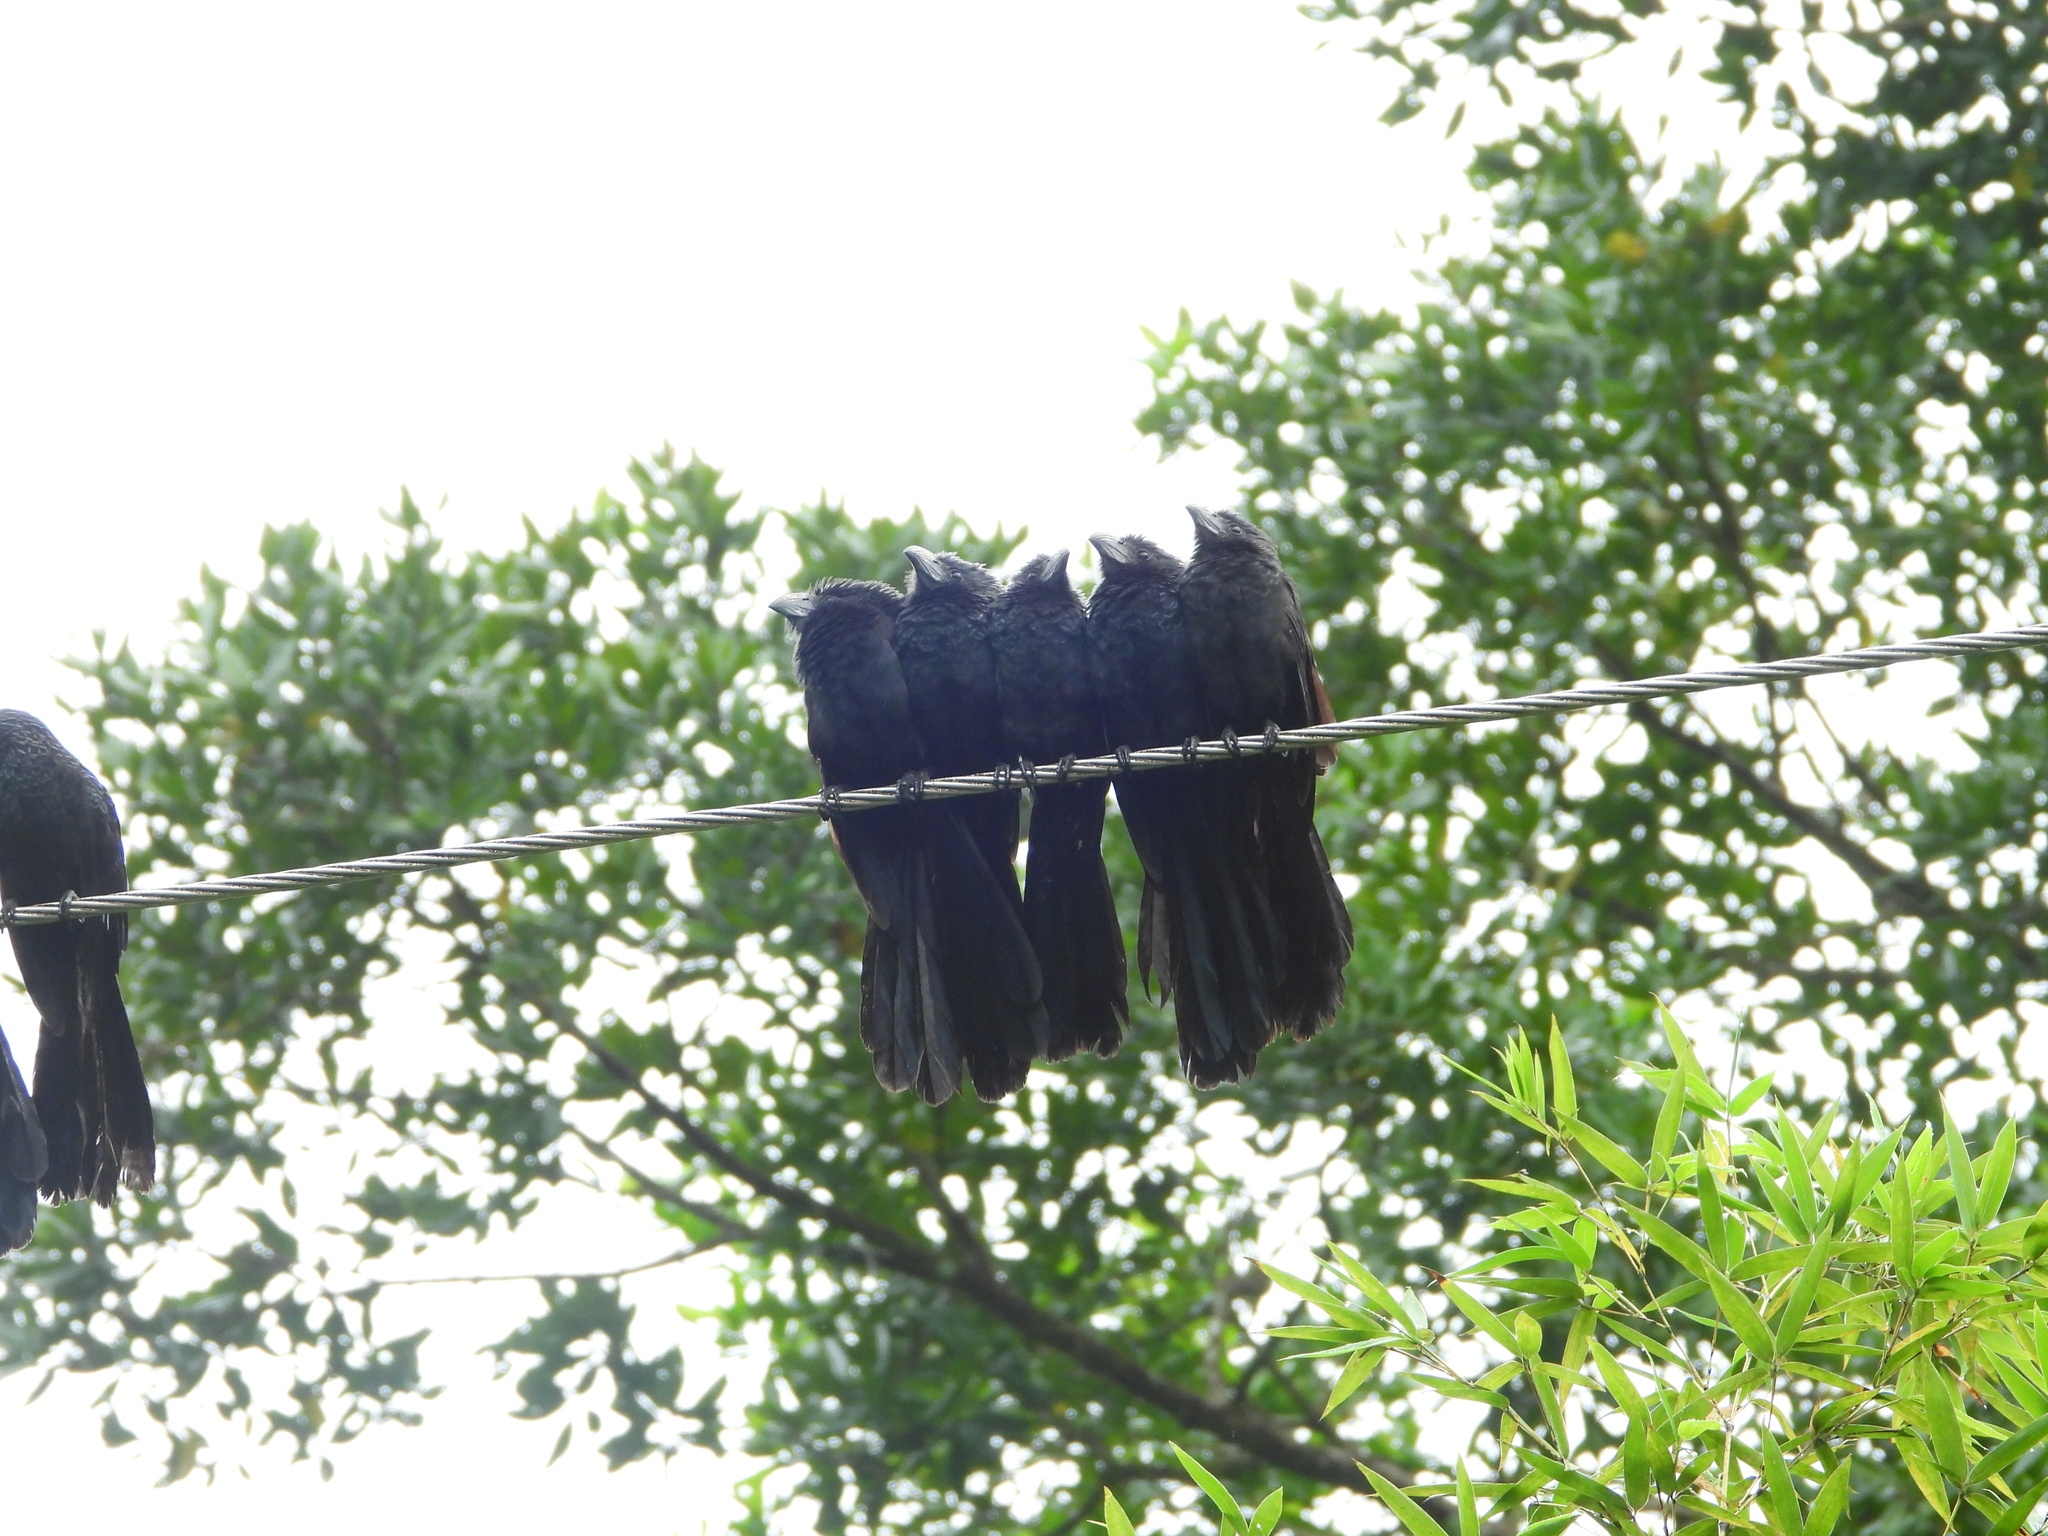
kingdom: Animalia
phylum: Chordata
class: Aves
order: Cuculiformes
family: Cuculidae
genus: Crotophaga
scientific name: Crotophaga sulcirostris
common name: Groove-billed ani
